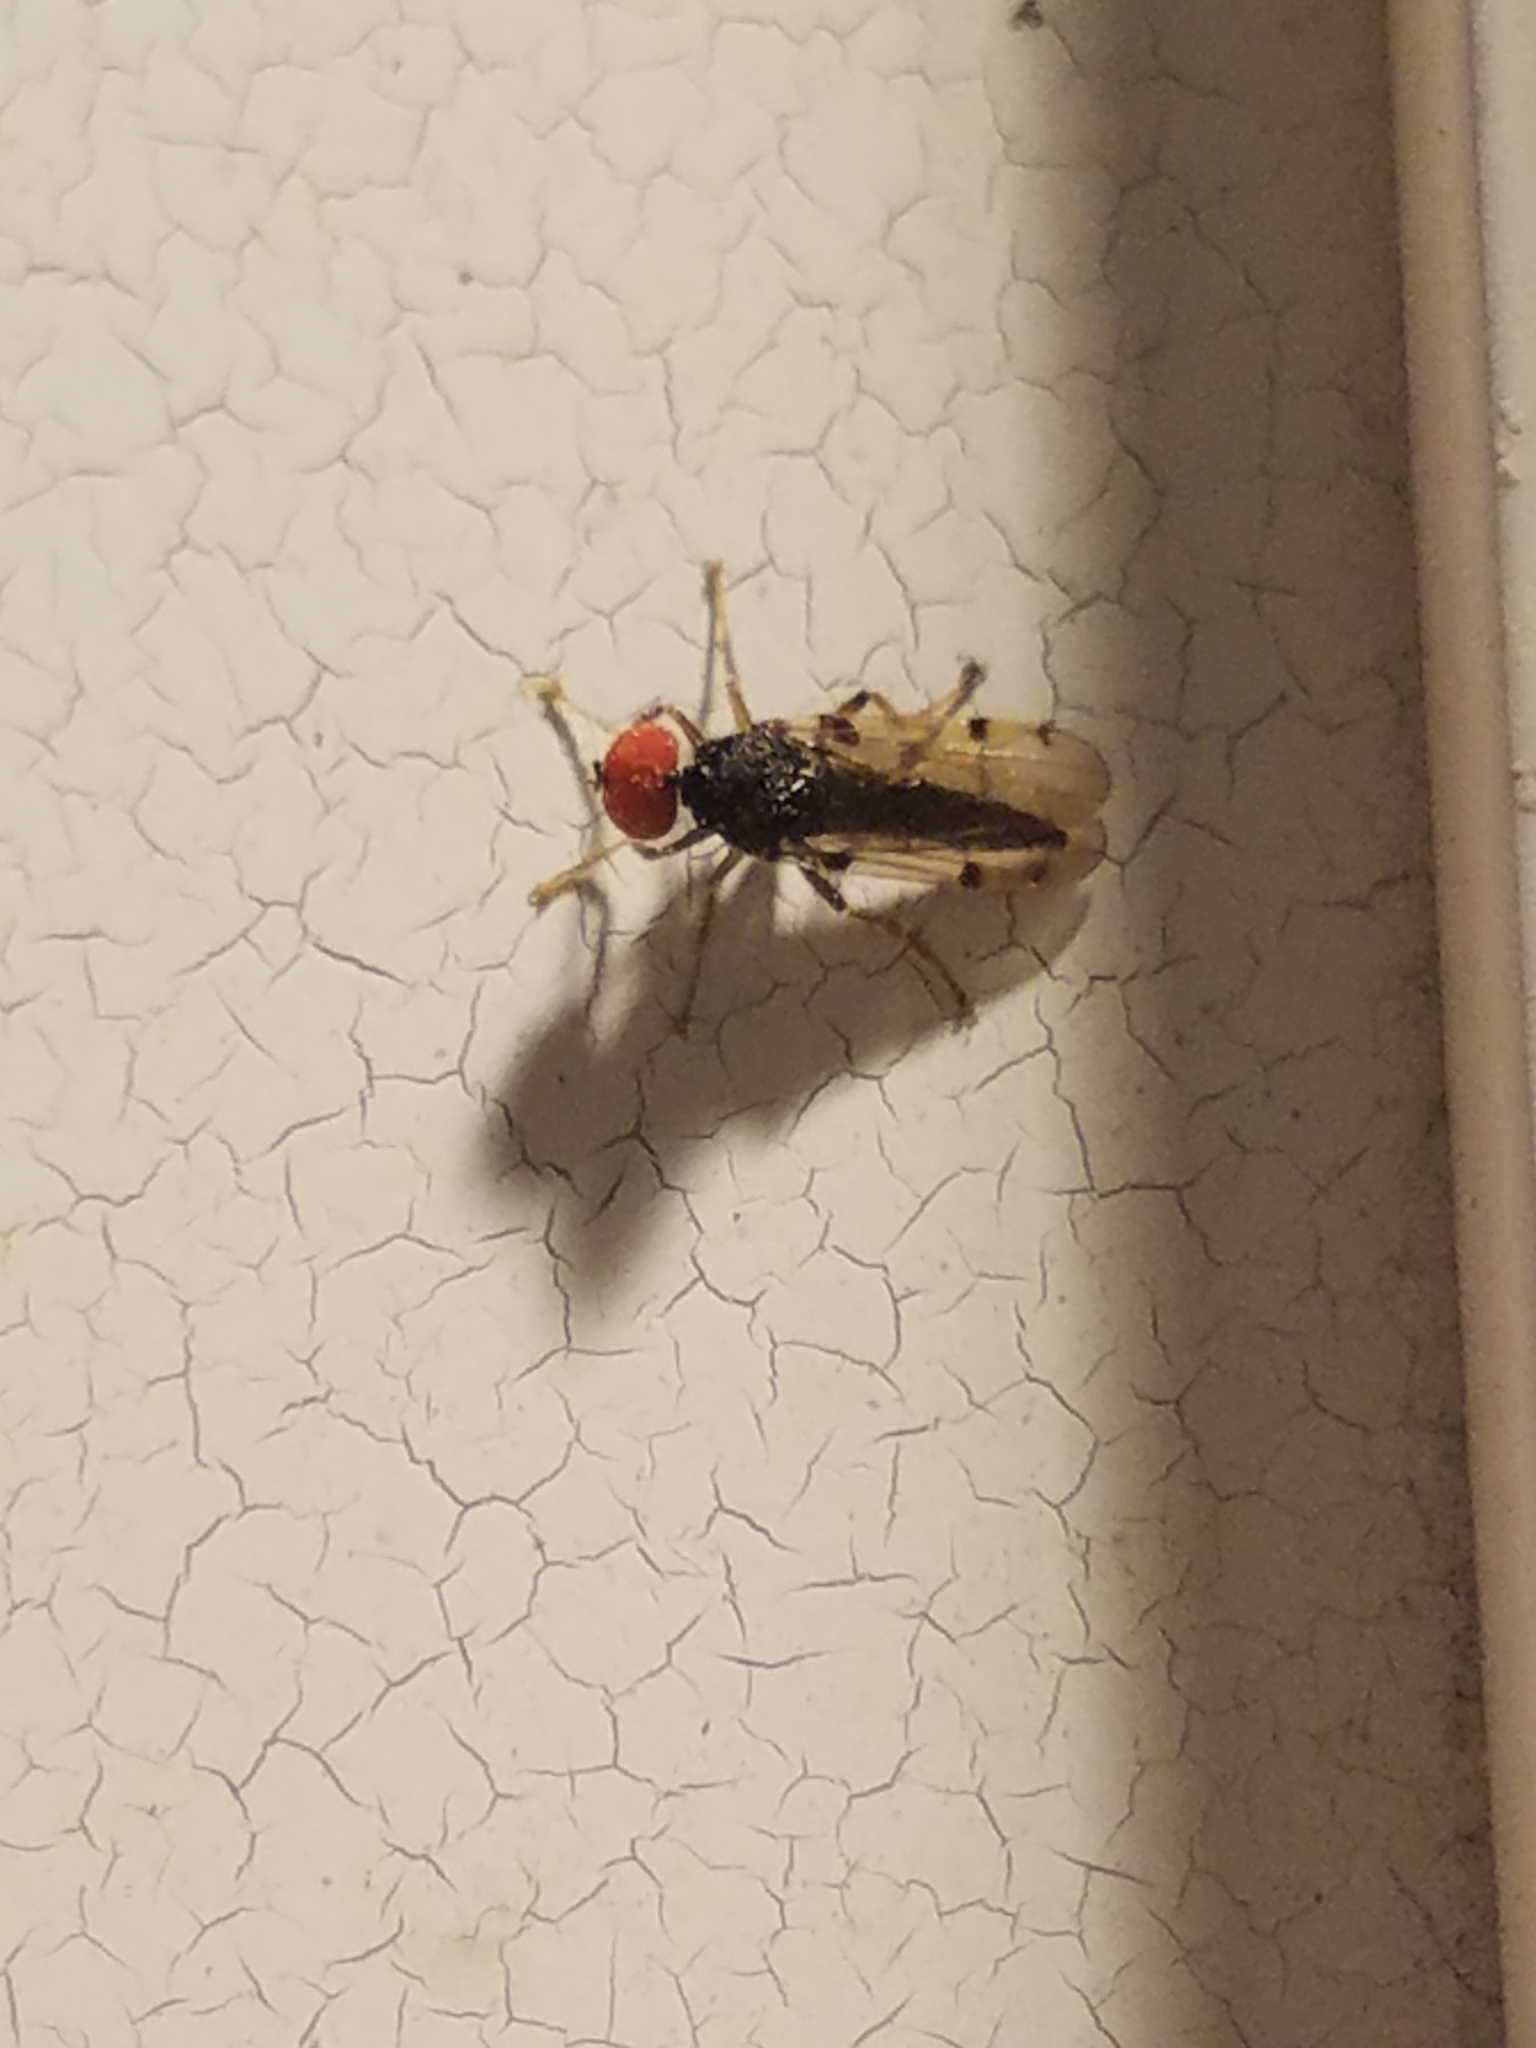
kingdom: Animalia
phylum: Arthropoda
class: Insecta
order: Diptera
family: Hybotidae
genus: Syneches
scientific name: Syneches simplex
